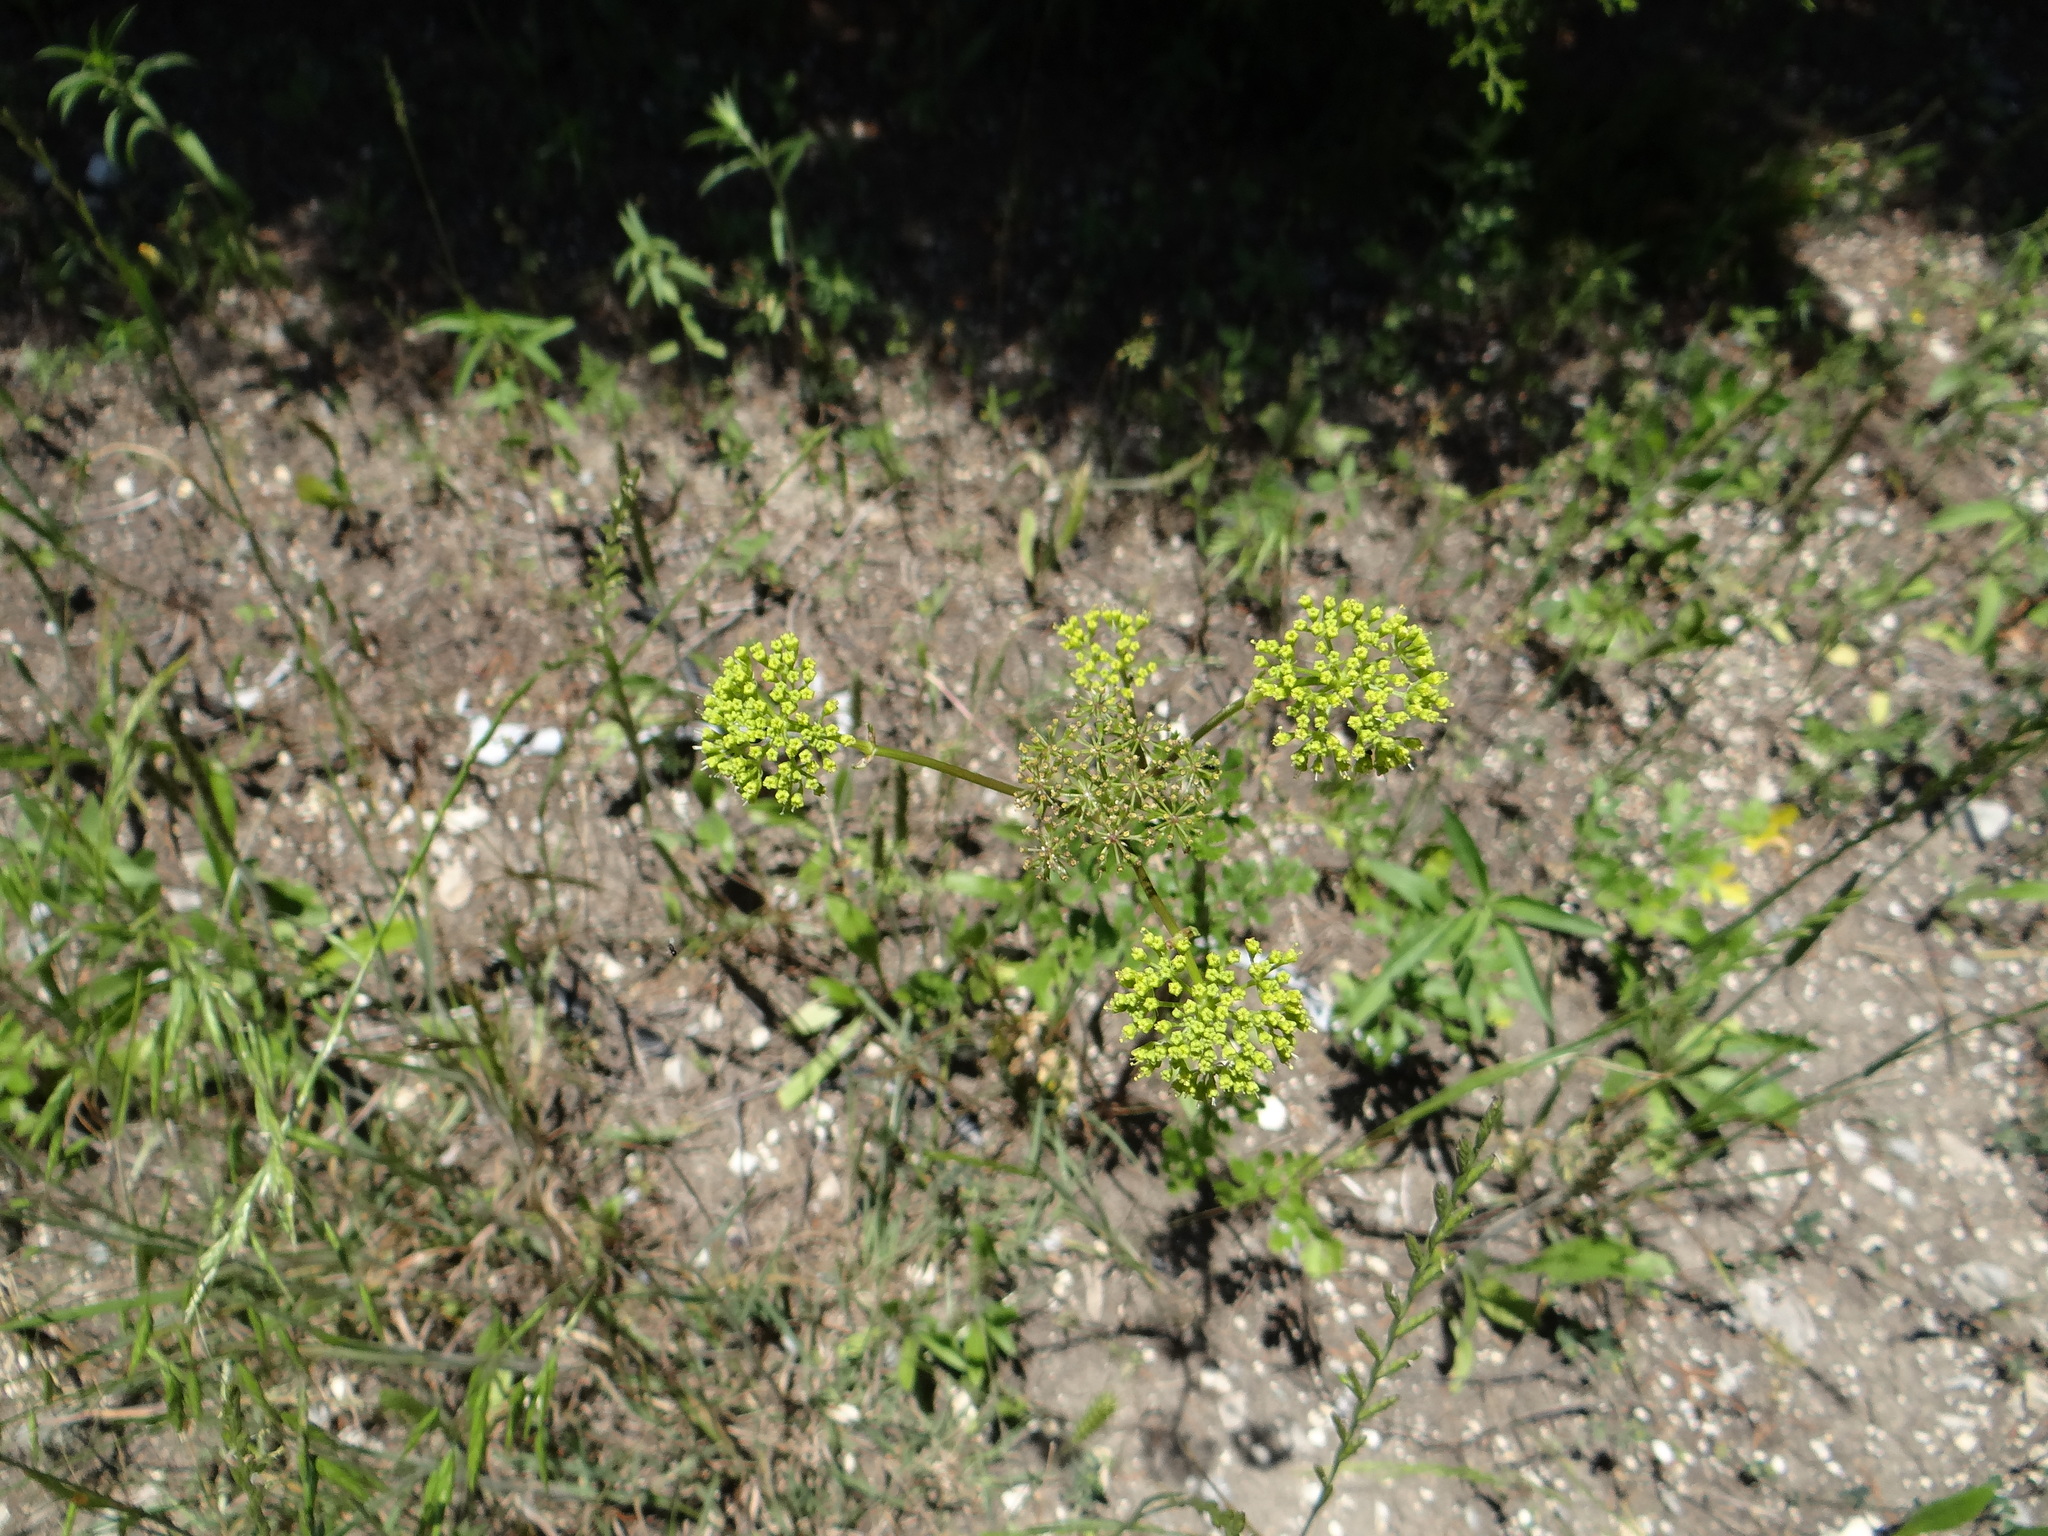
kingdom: Plantae
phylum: Tracheophyta
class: Magnoliopsida
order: Apiales
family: Apiaceae
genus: Polytaenia
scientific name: Polytaenia texana
